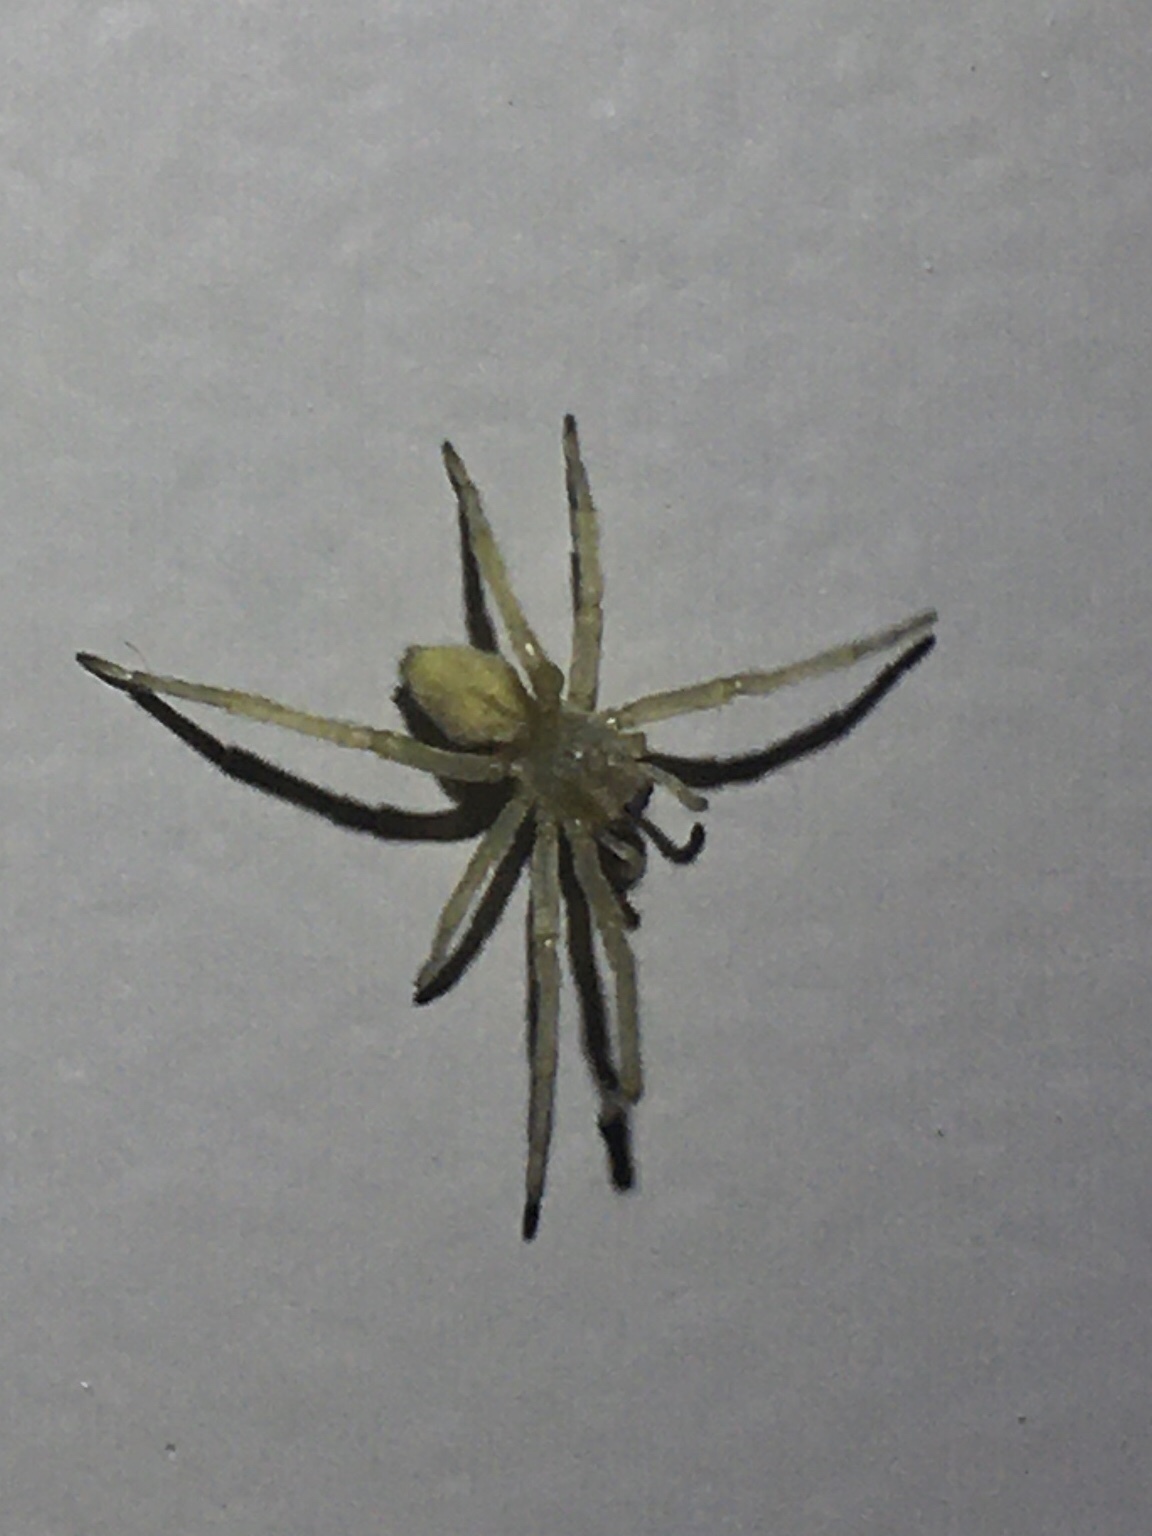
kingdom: Animalia
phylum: Arthropoda
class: Arachnida
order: Araneae
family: Cheiracanthiidae
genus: Cheiracanthium
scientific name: Cheiracanthium mildei
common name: Northern yellow sac spider
